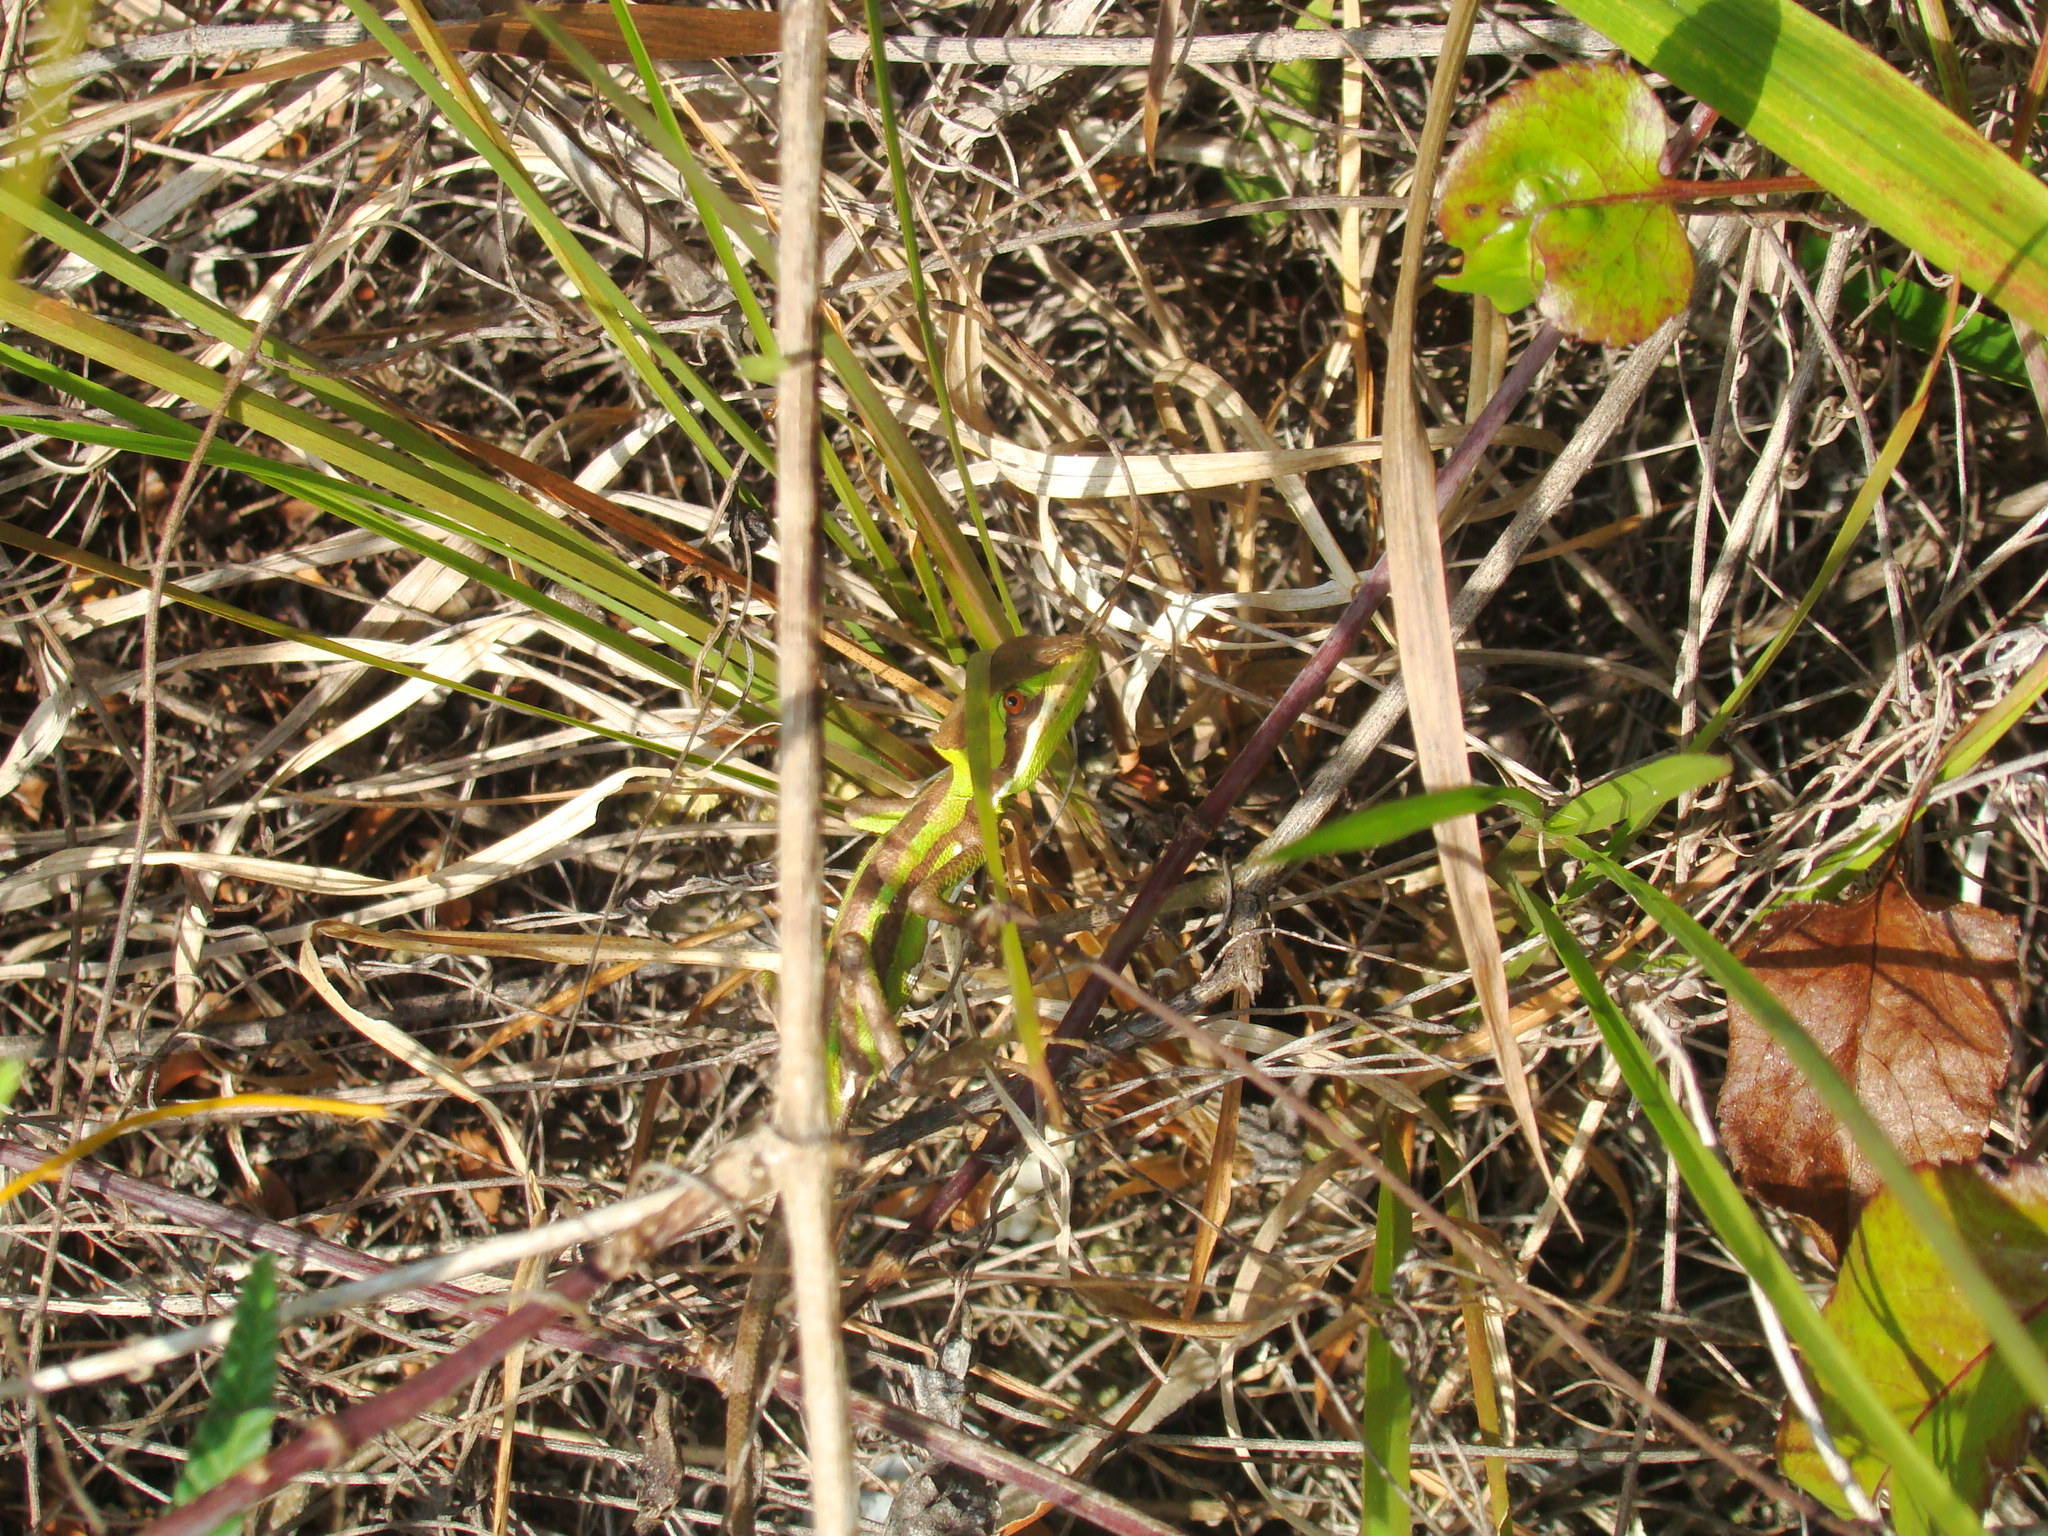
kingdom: Animalia
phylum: Chordata
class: Squamata
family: Corytophanidae
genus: Laemanctus
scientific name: Laemanctus serratus
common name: Serrated casquehead iguana
